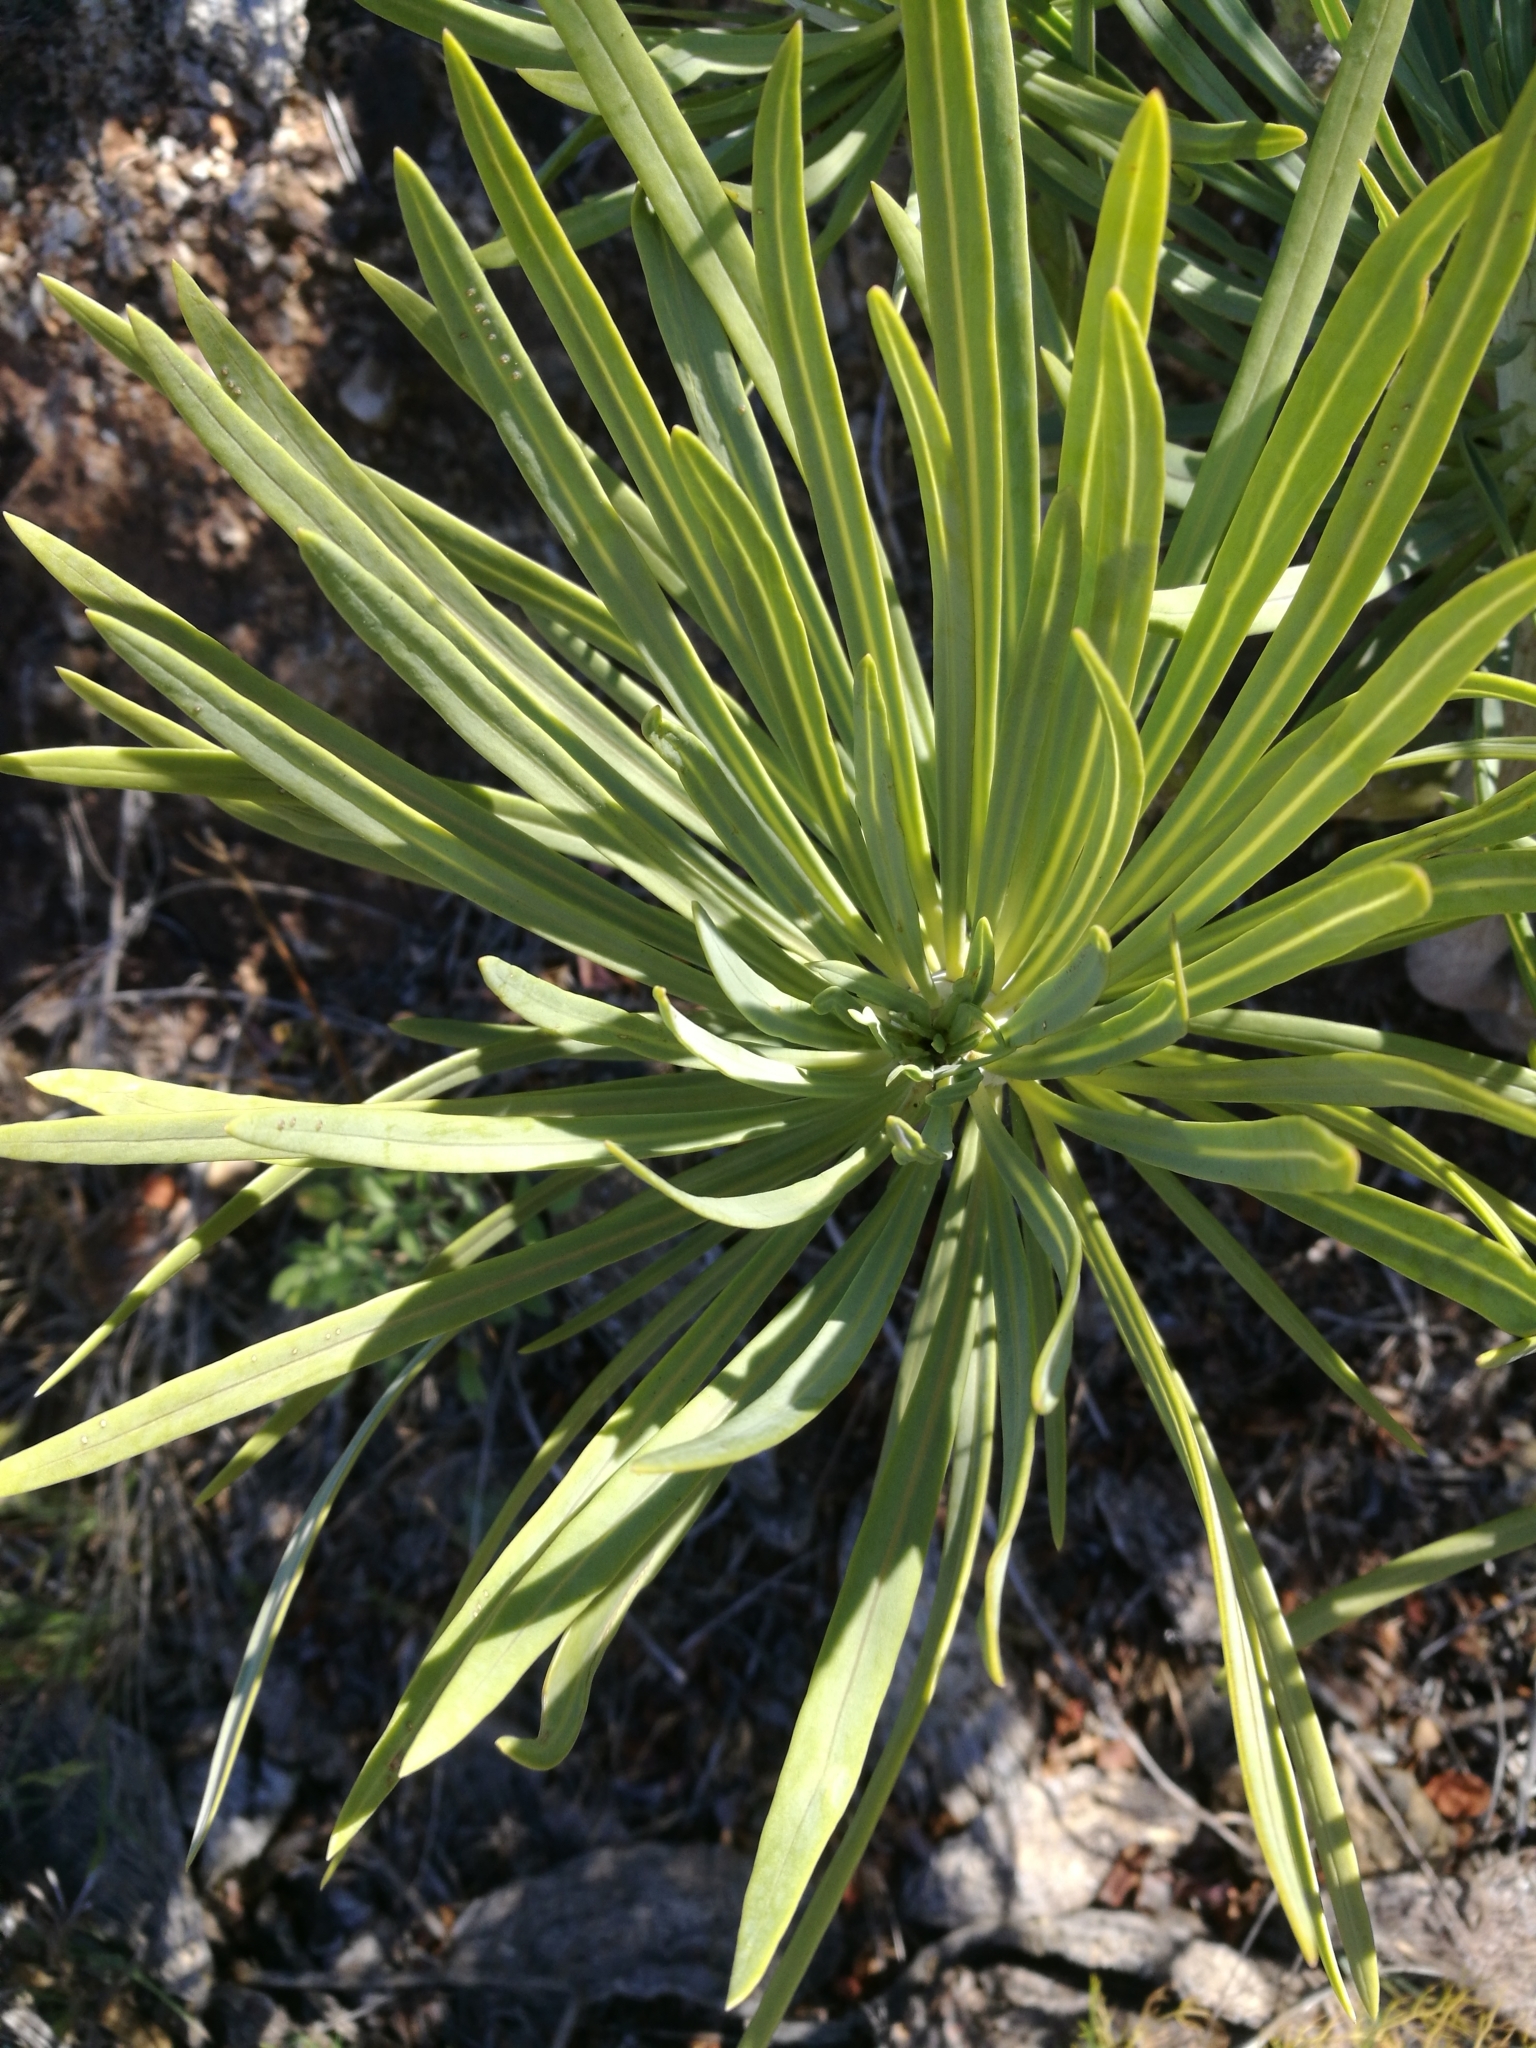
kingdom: Plantae
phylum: Tracheophyta
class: Magnoliopsida
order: Asterales
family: Asteraceae
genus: Kleinia
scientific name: Kleinia neriifolia
